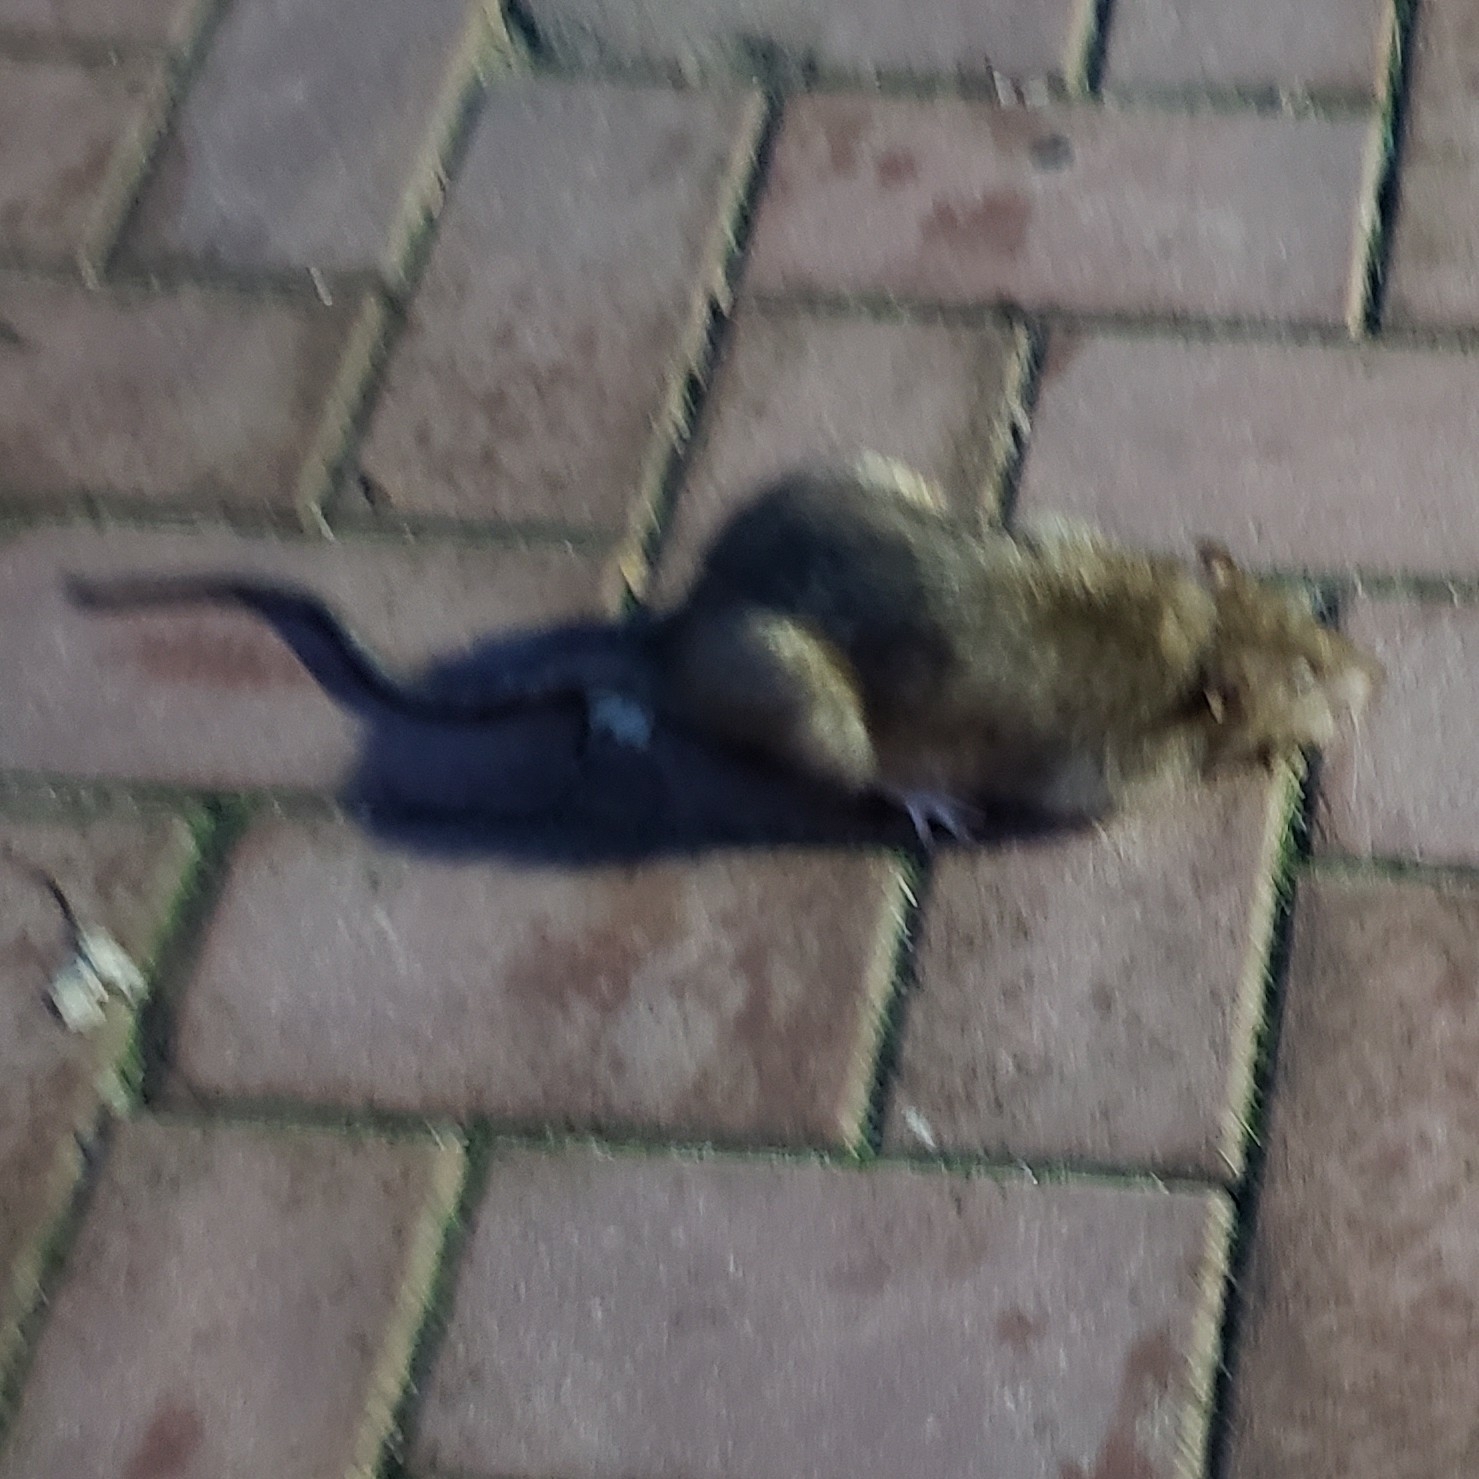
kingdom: Animalia
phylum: Chordata
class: Mammalia
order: Rodentia
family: Muridae
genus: Rattus
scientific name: Rattus norvegicus
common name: Brown rat
